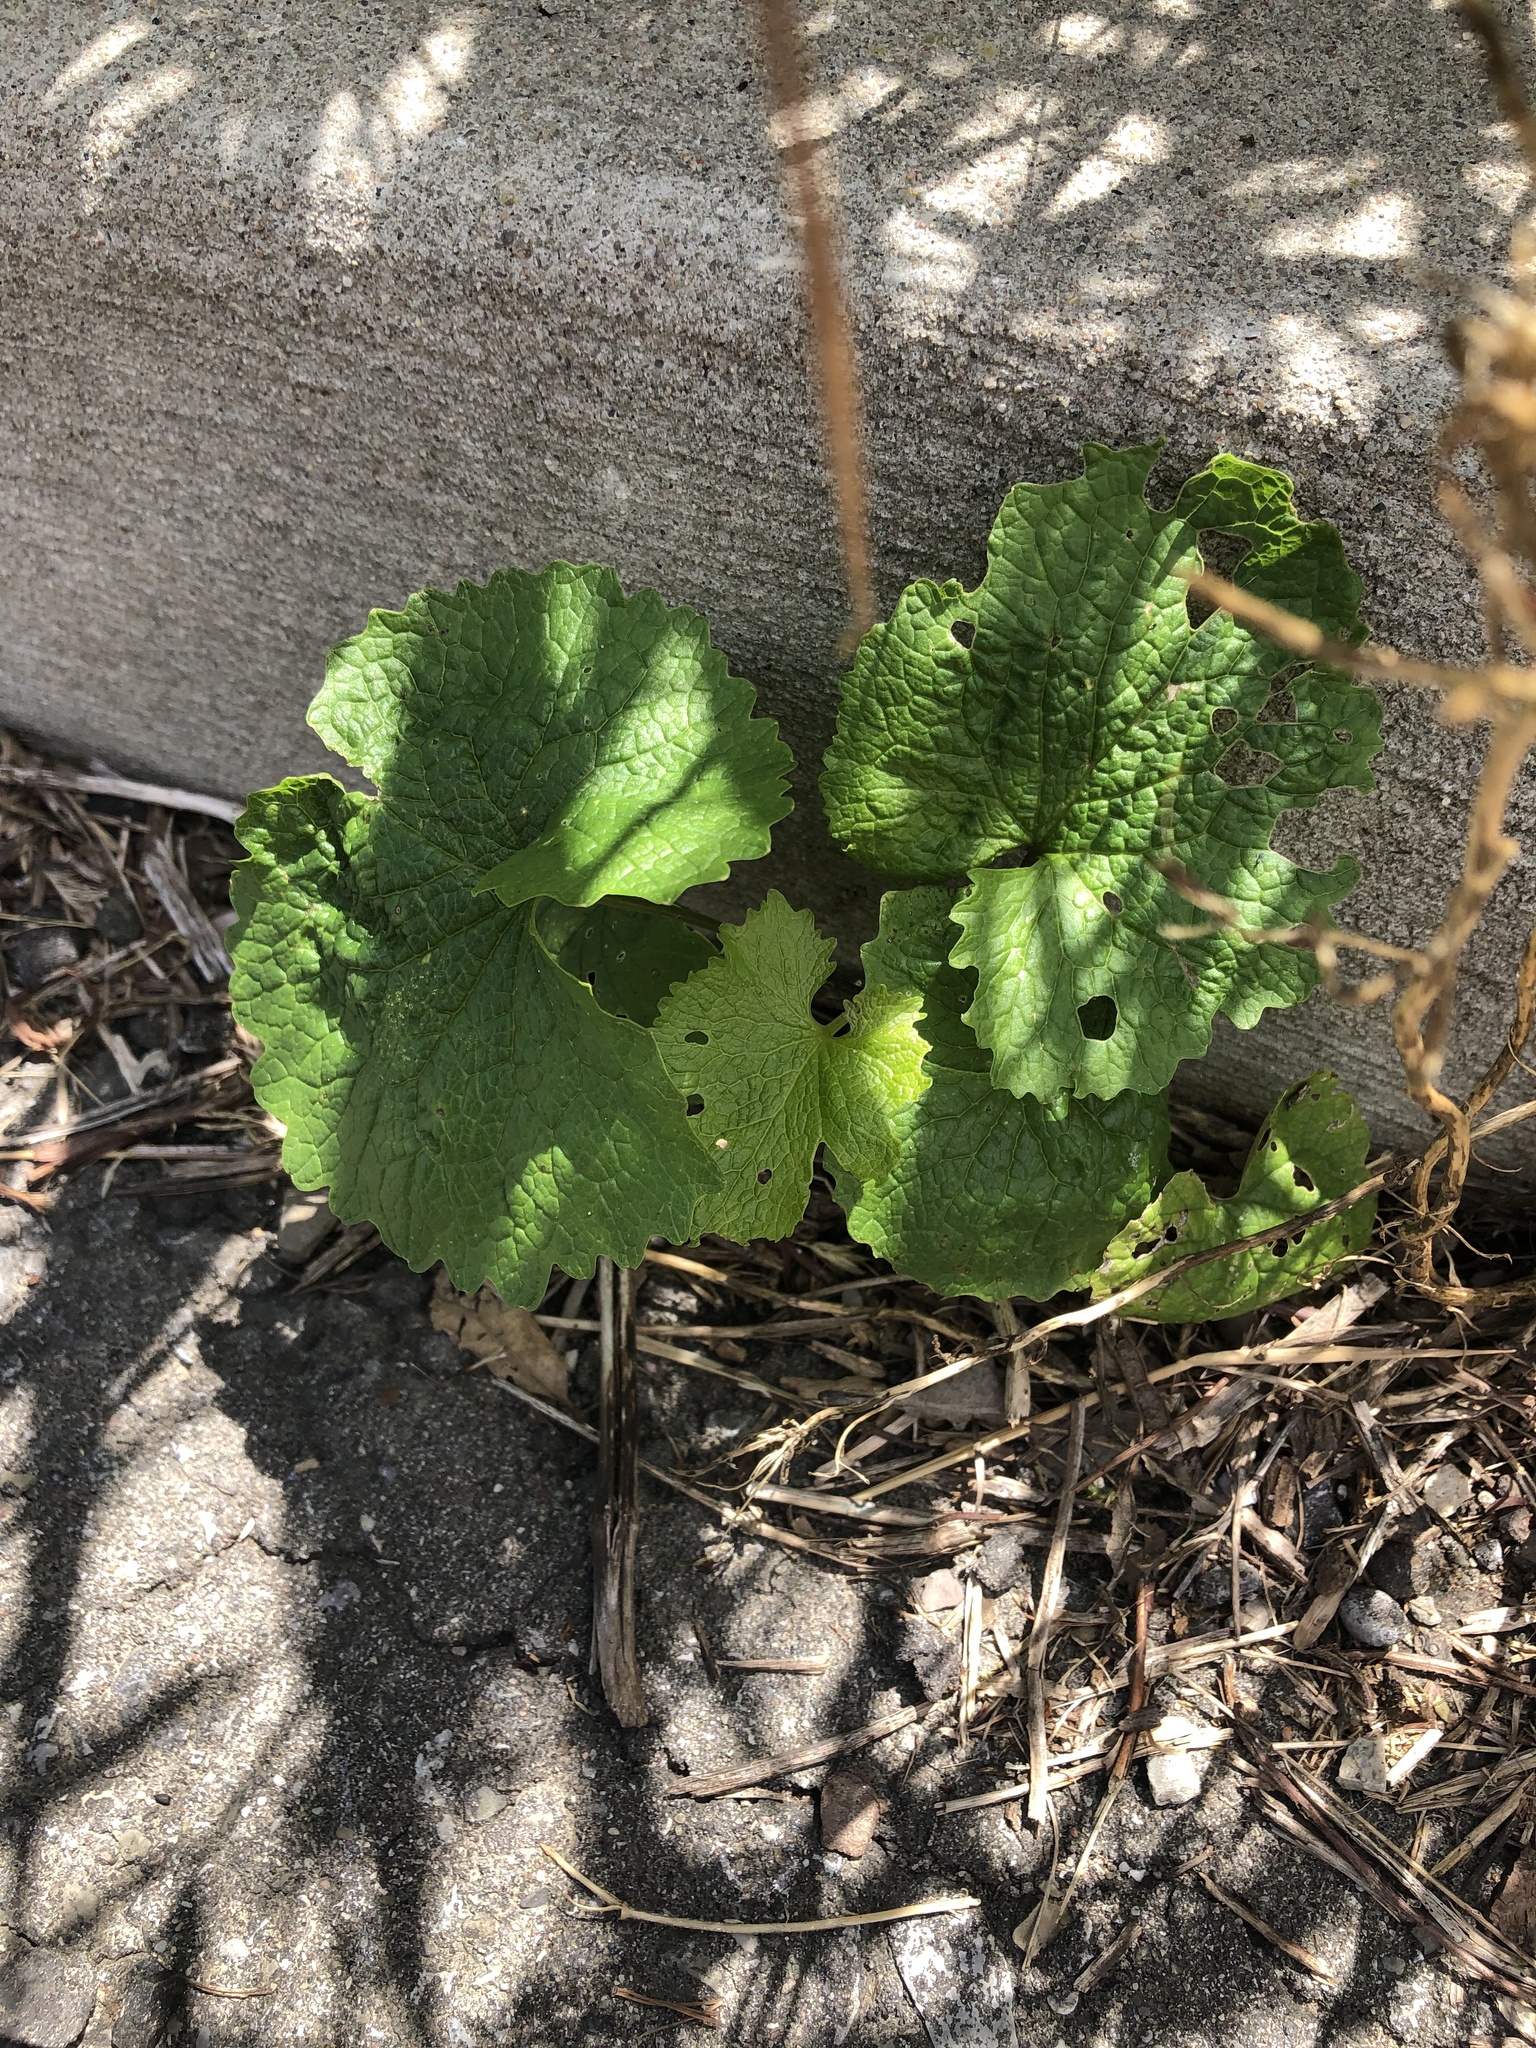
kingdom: Plantae
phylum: Tracheophyta
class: Magnoliopsida
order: Brassicales
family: Brassicaceae
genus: Alliaria
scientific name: Alliaria petiolata
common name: Garlic mustard
